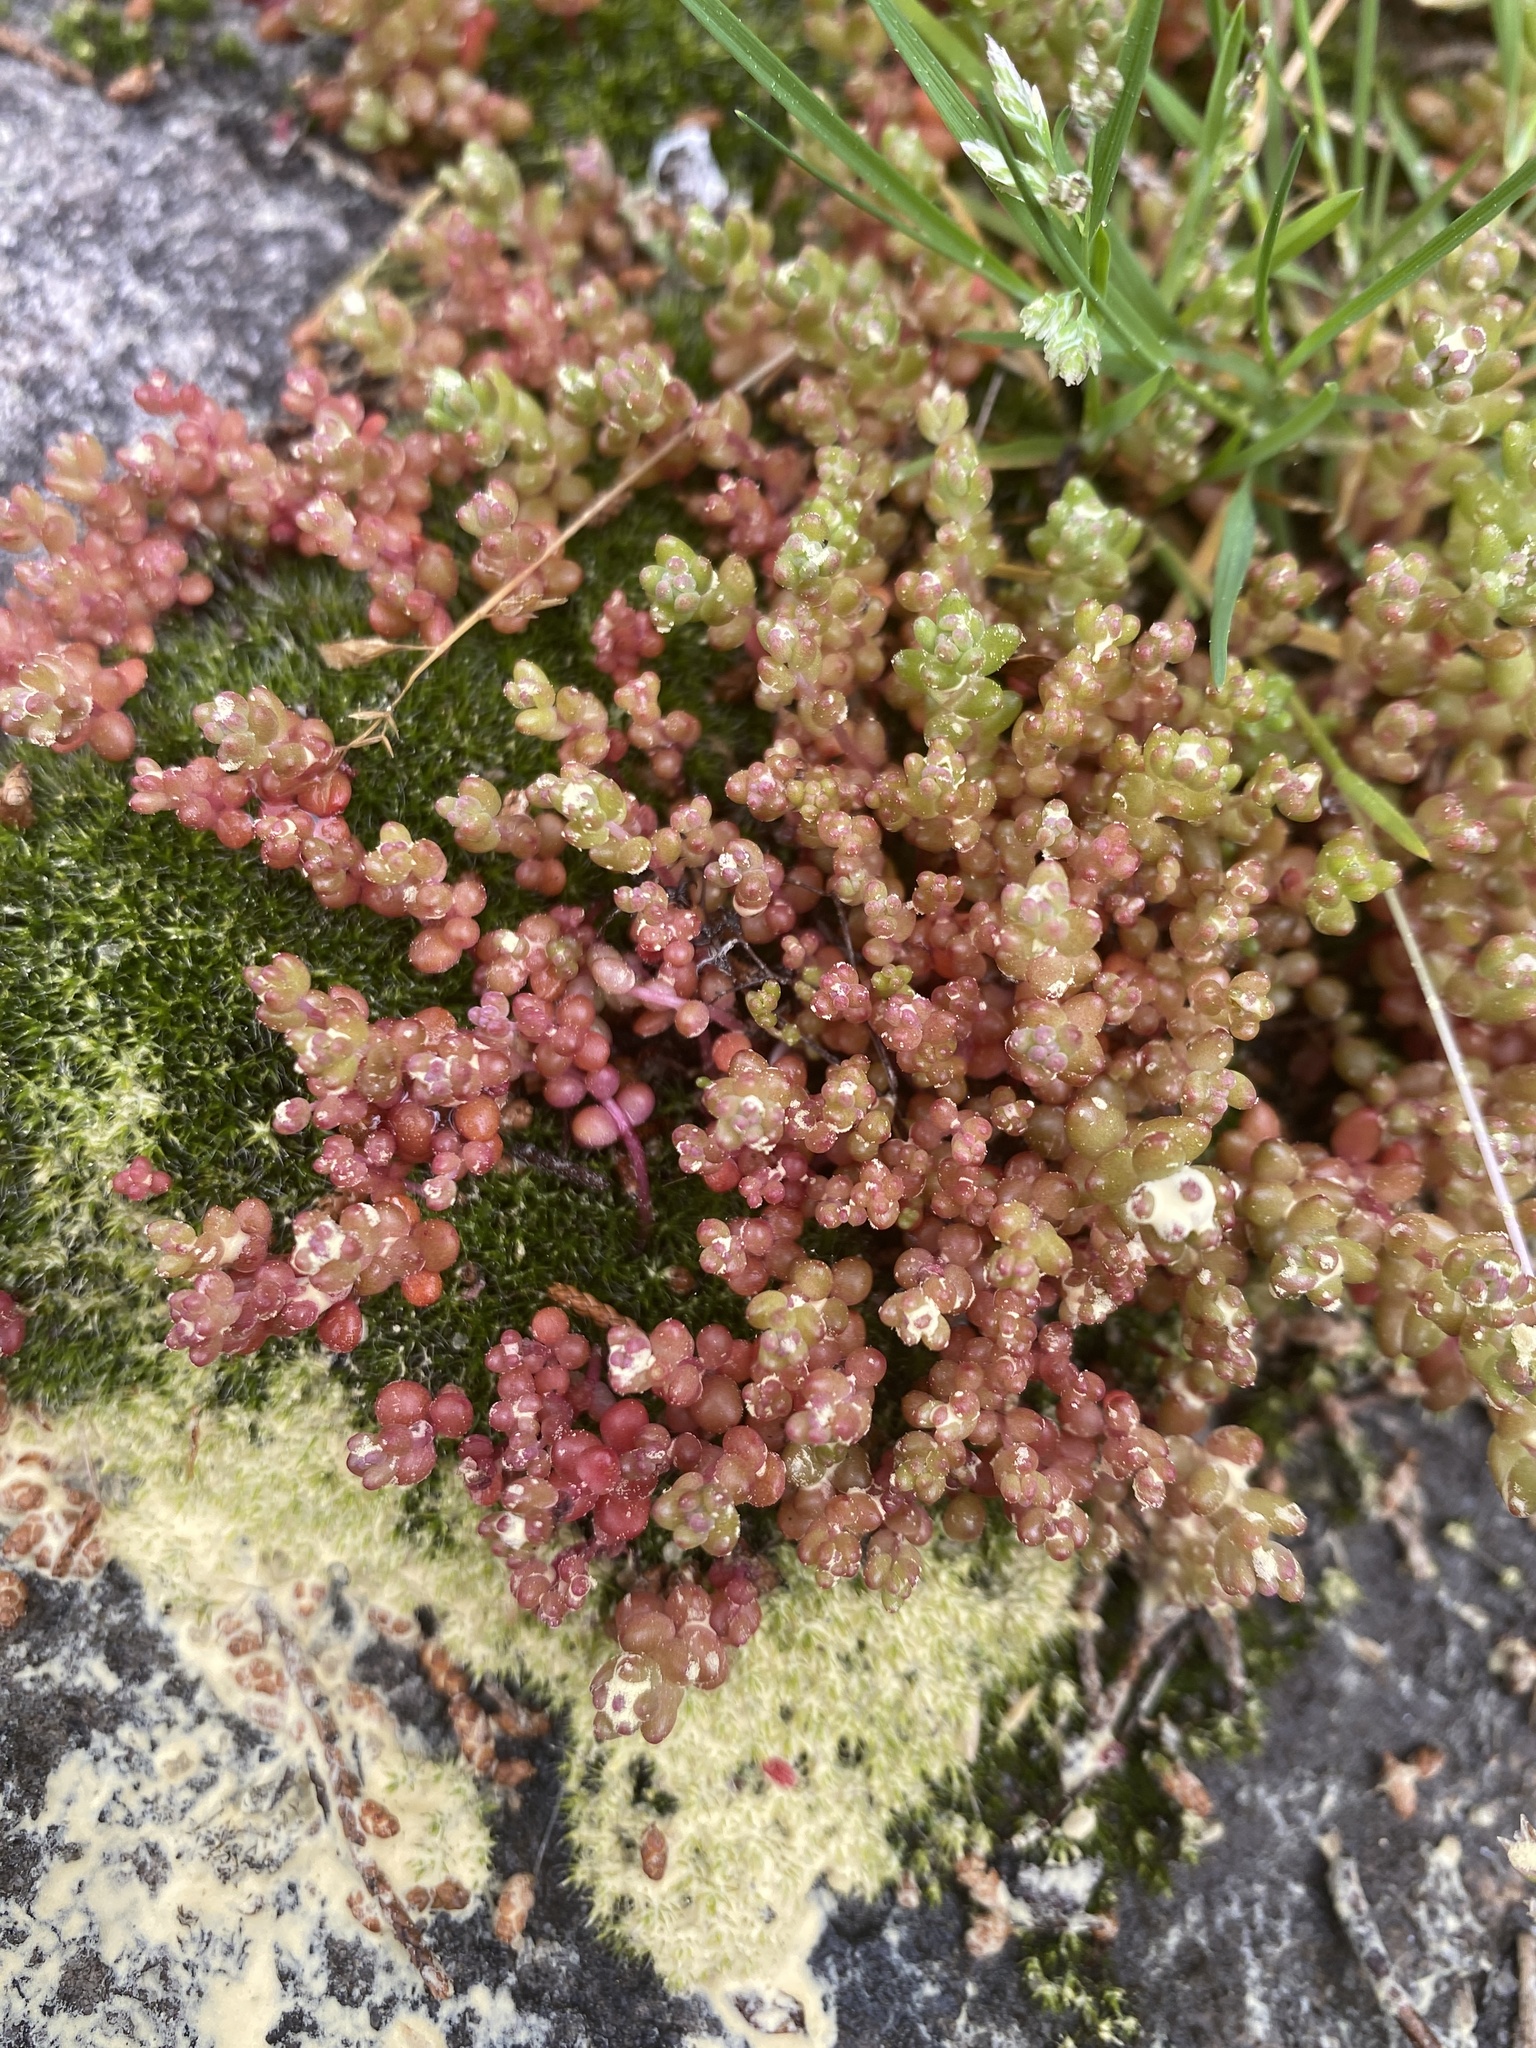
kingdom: Plantae
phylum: Tracheophyta
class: Magnoliopsida
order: Saxifragales
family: Crassulaceae
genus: Sedum
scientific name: Sedum smallii
